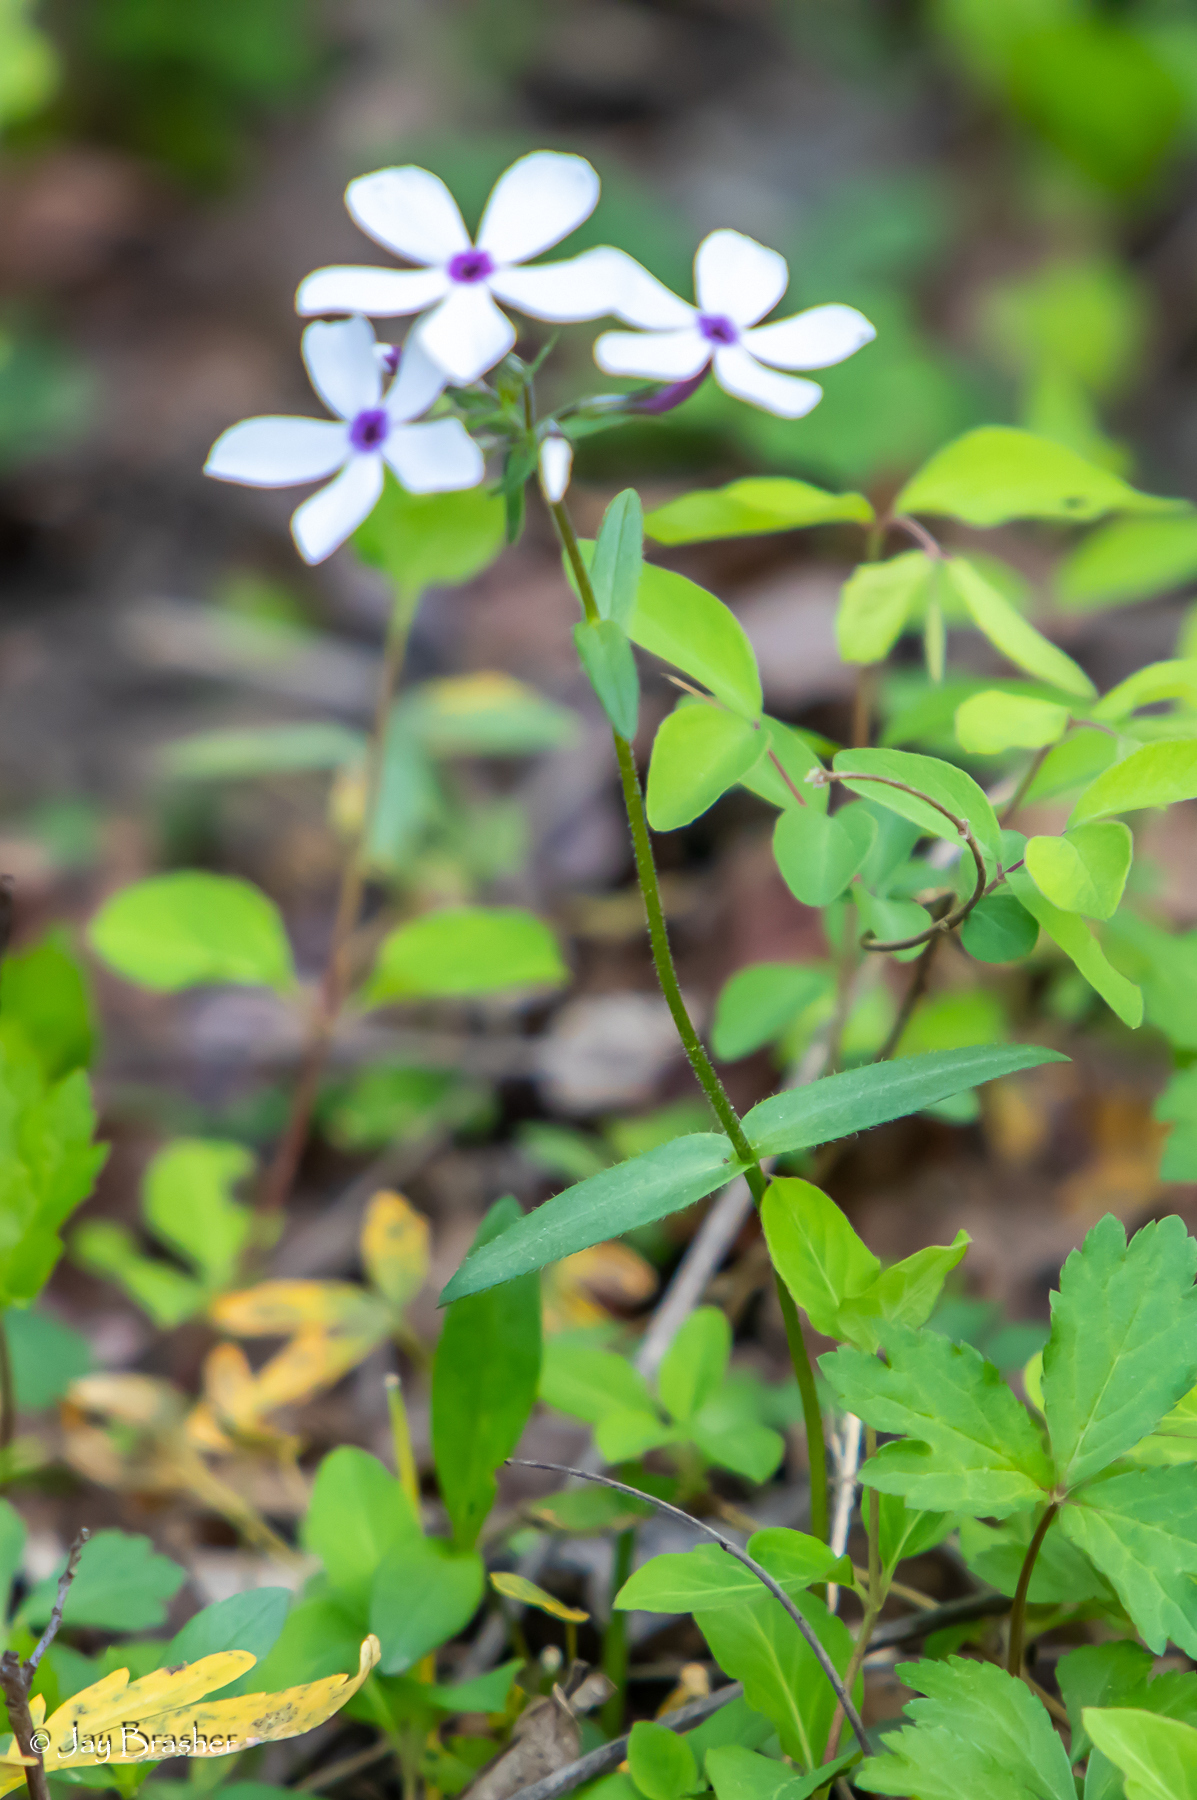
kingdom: Plantae
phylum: Tracheophyta
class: Magnoliopsida
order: Ericales
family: Polemoniaceae
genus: Phlox
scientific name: Phlox pilosa
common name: Prairie phlox
